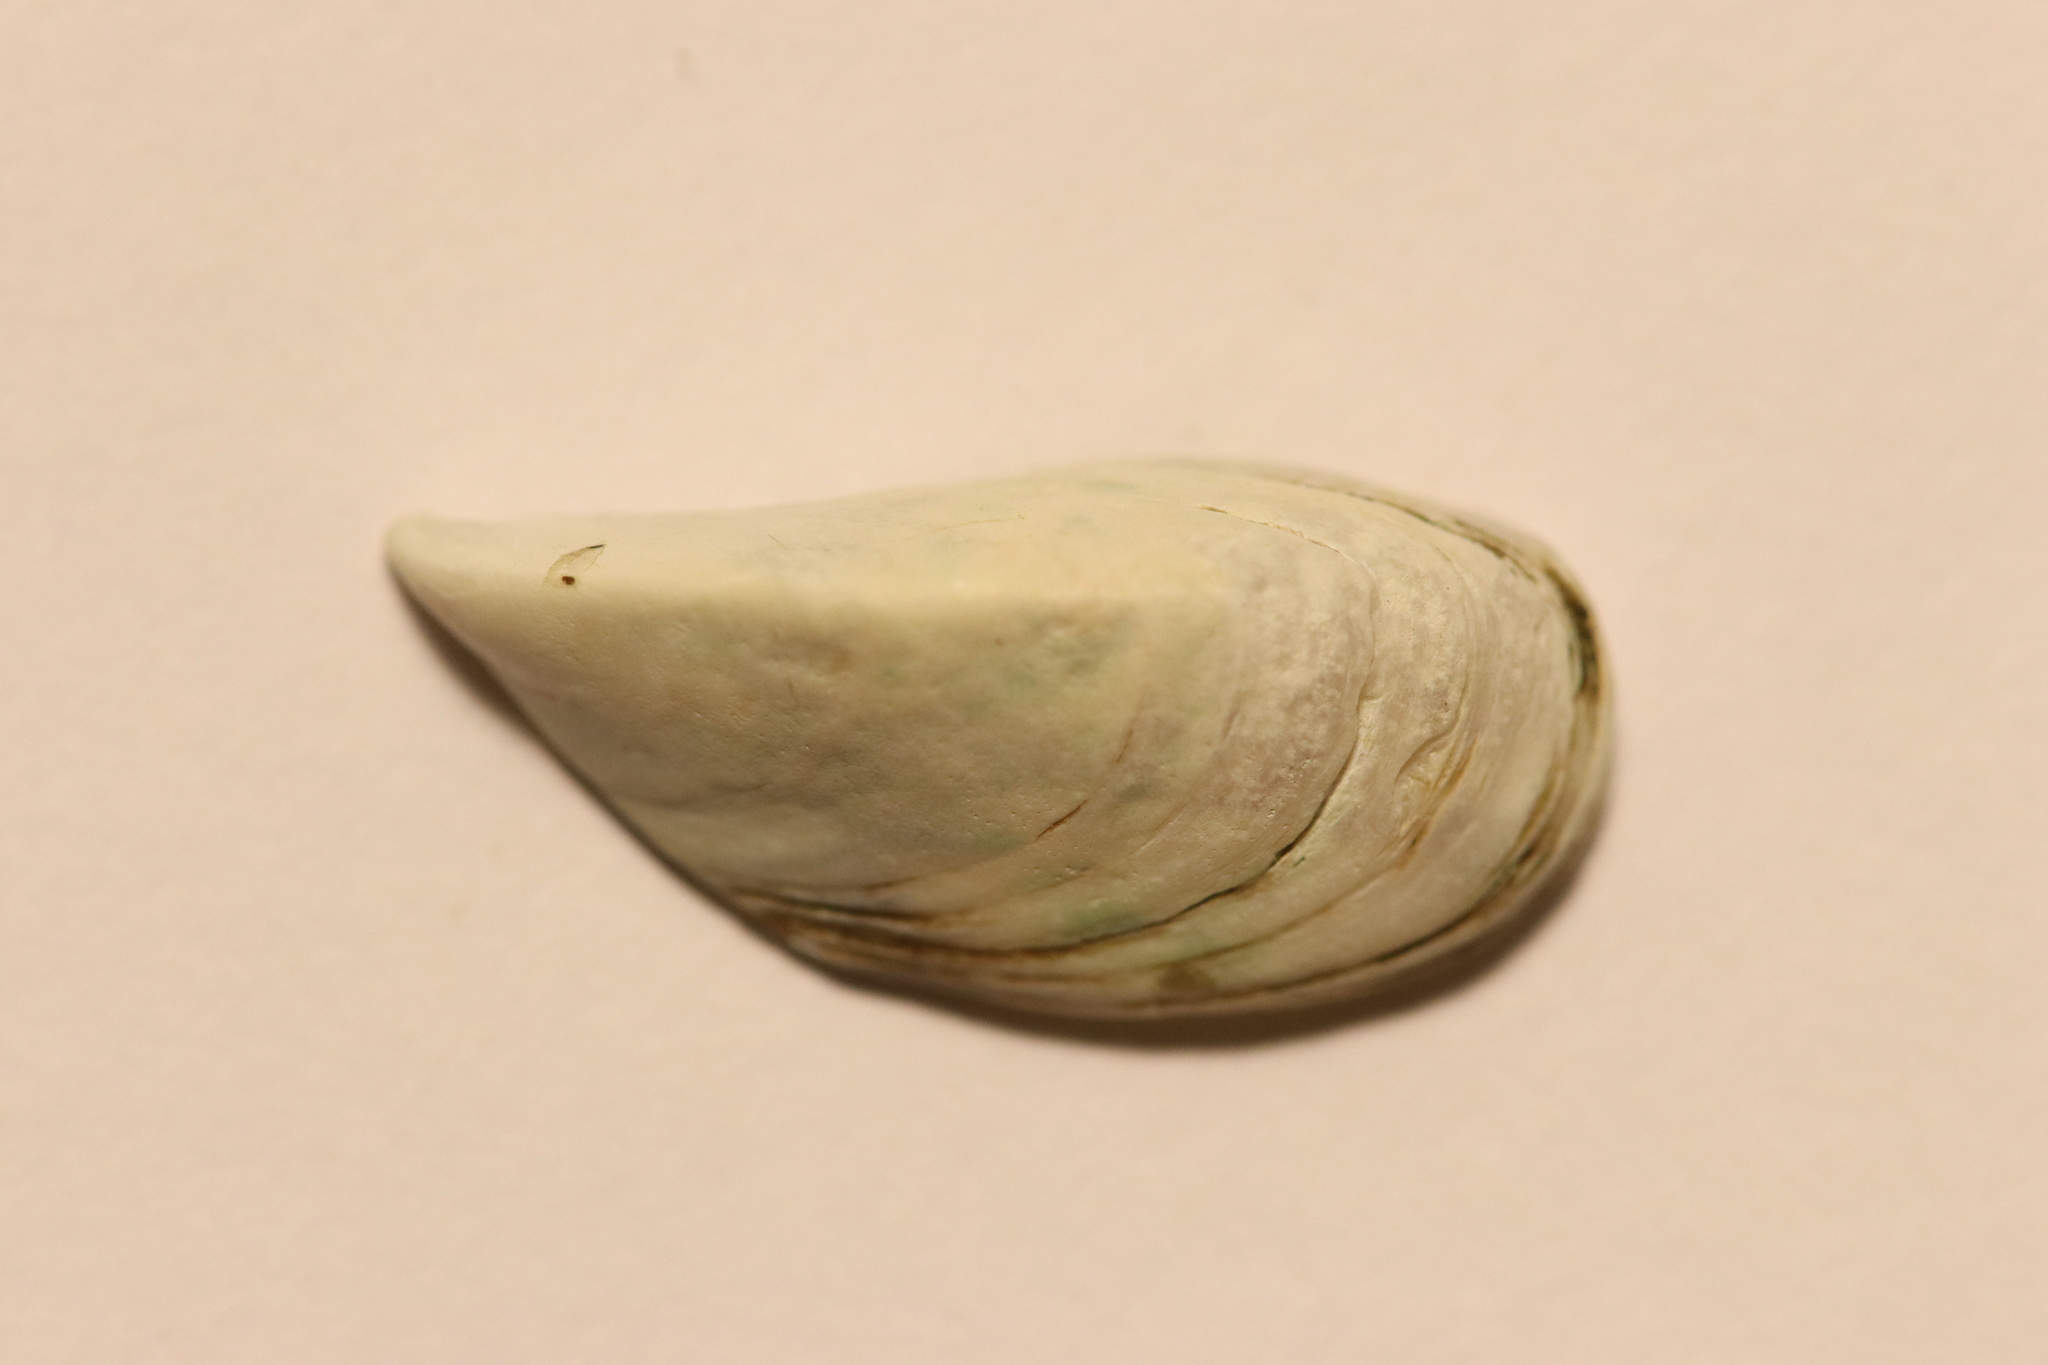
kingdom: Animalia
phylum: Mollusca
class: Bivalvia
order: Myida
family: Dreissenidae
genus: Dreissena
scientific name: Dreissena polymorpha
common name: Zebra mussel
